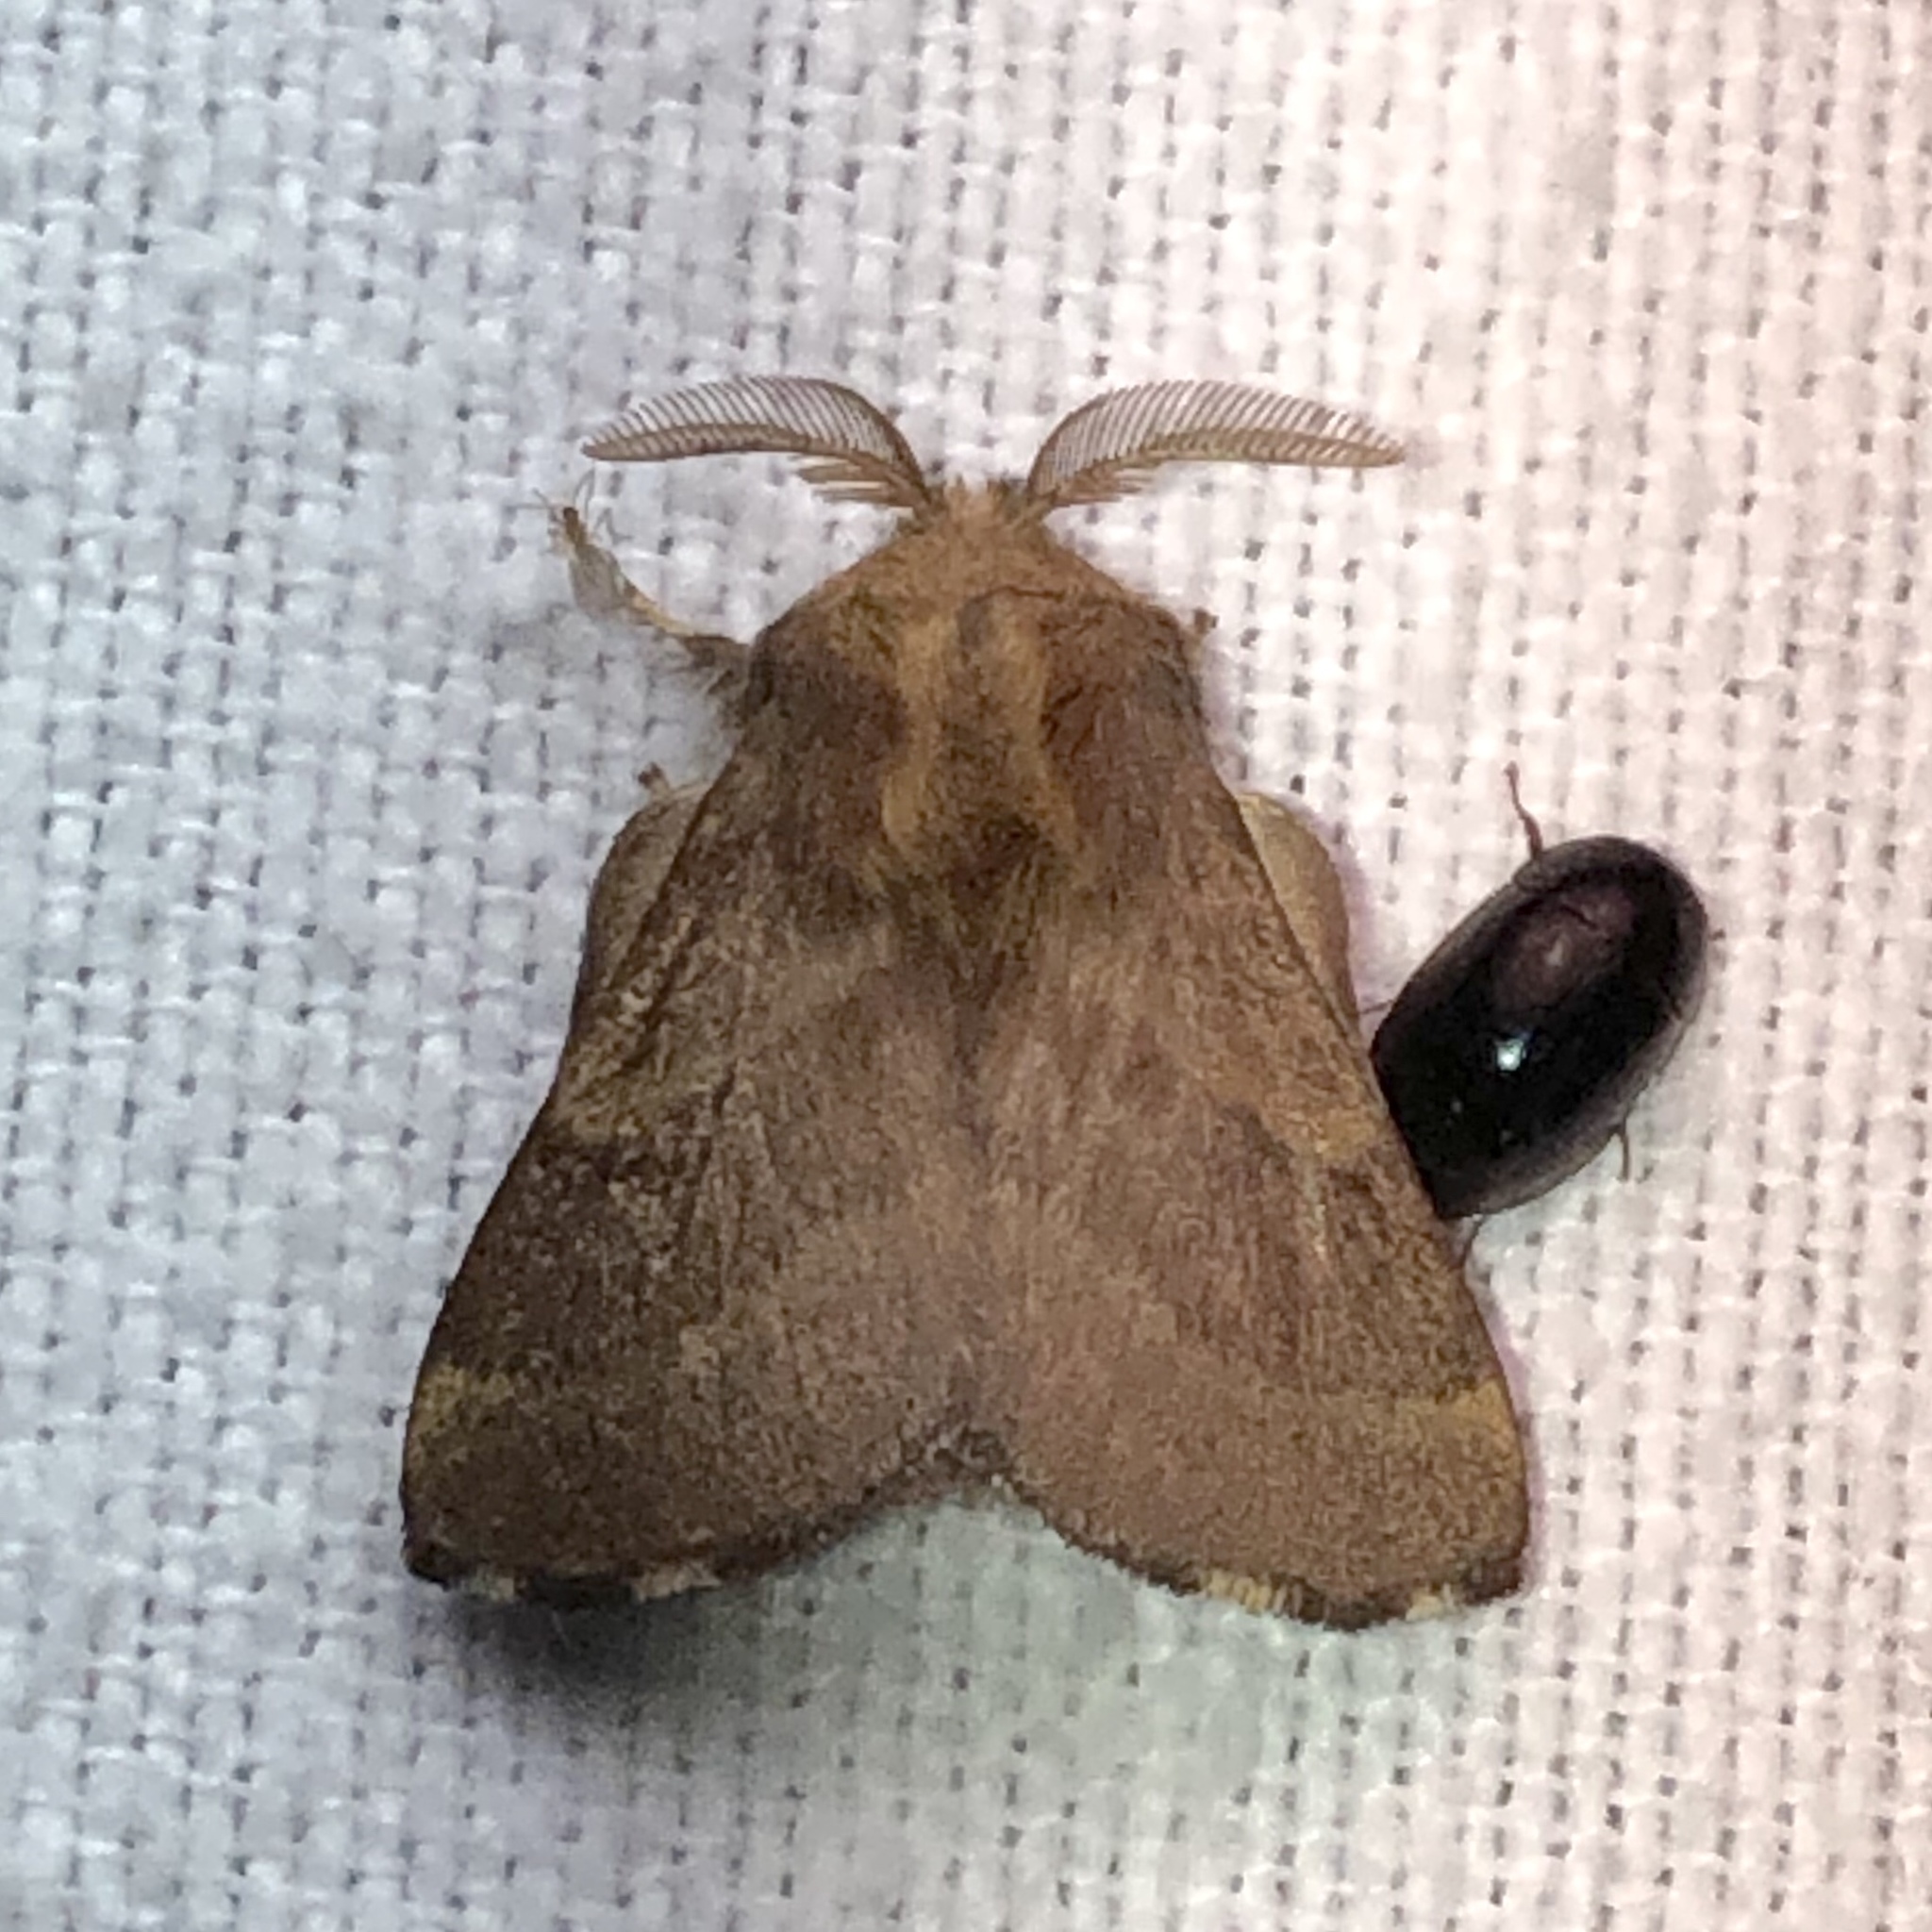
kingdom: Animalia
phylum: Arthropoda
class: Insecta
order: Lepidoptera
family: Lasiocampidae
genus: Malacosoma
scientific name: Malacosoma disstria
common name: Forest tent caterpillar
